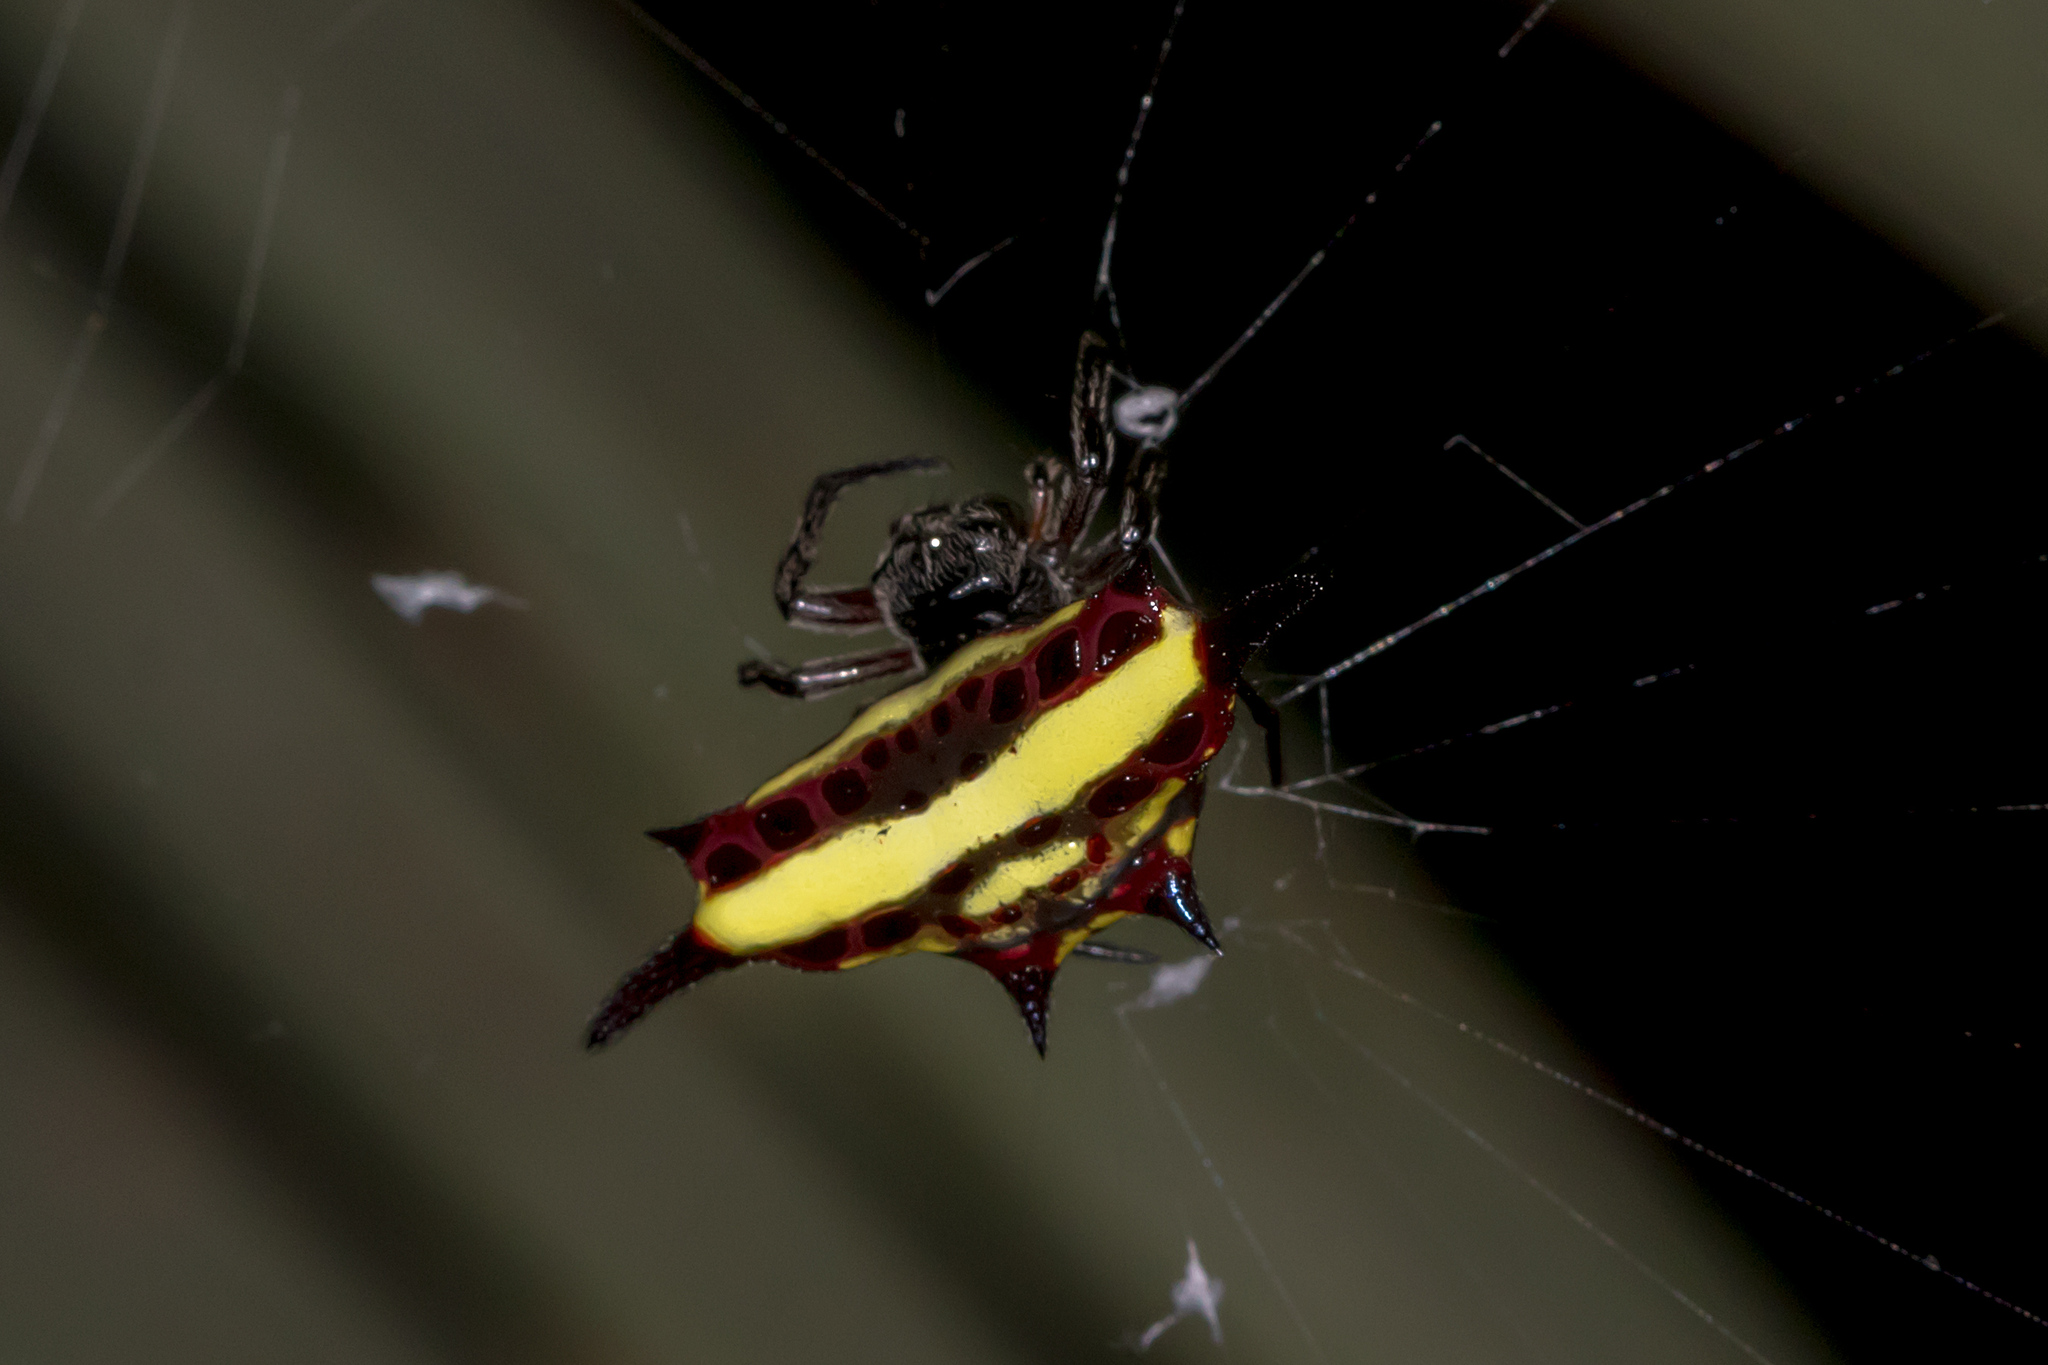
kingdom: Animalia
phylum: Arthropoda
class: Arachnida
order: Araneae
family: Araneidae
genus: Gasteracantha
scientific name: Gasteracantha fornicata
